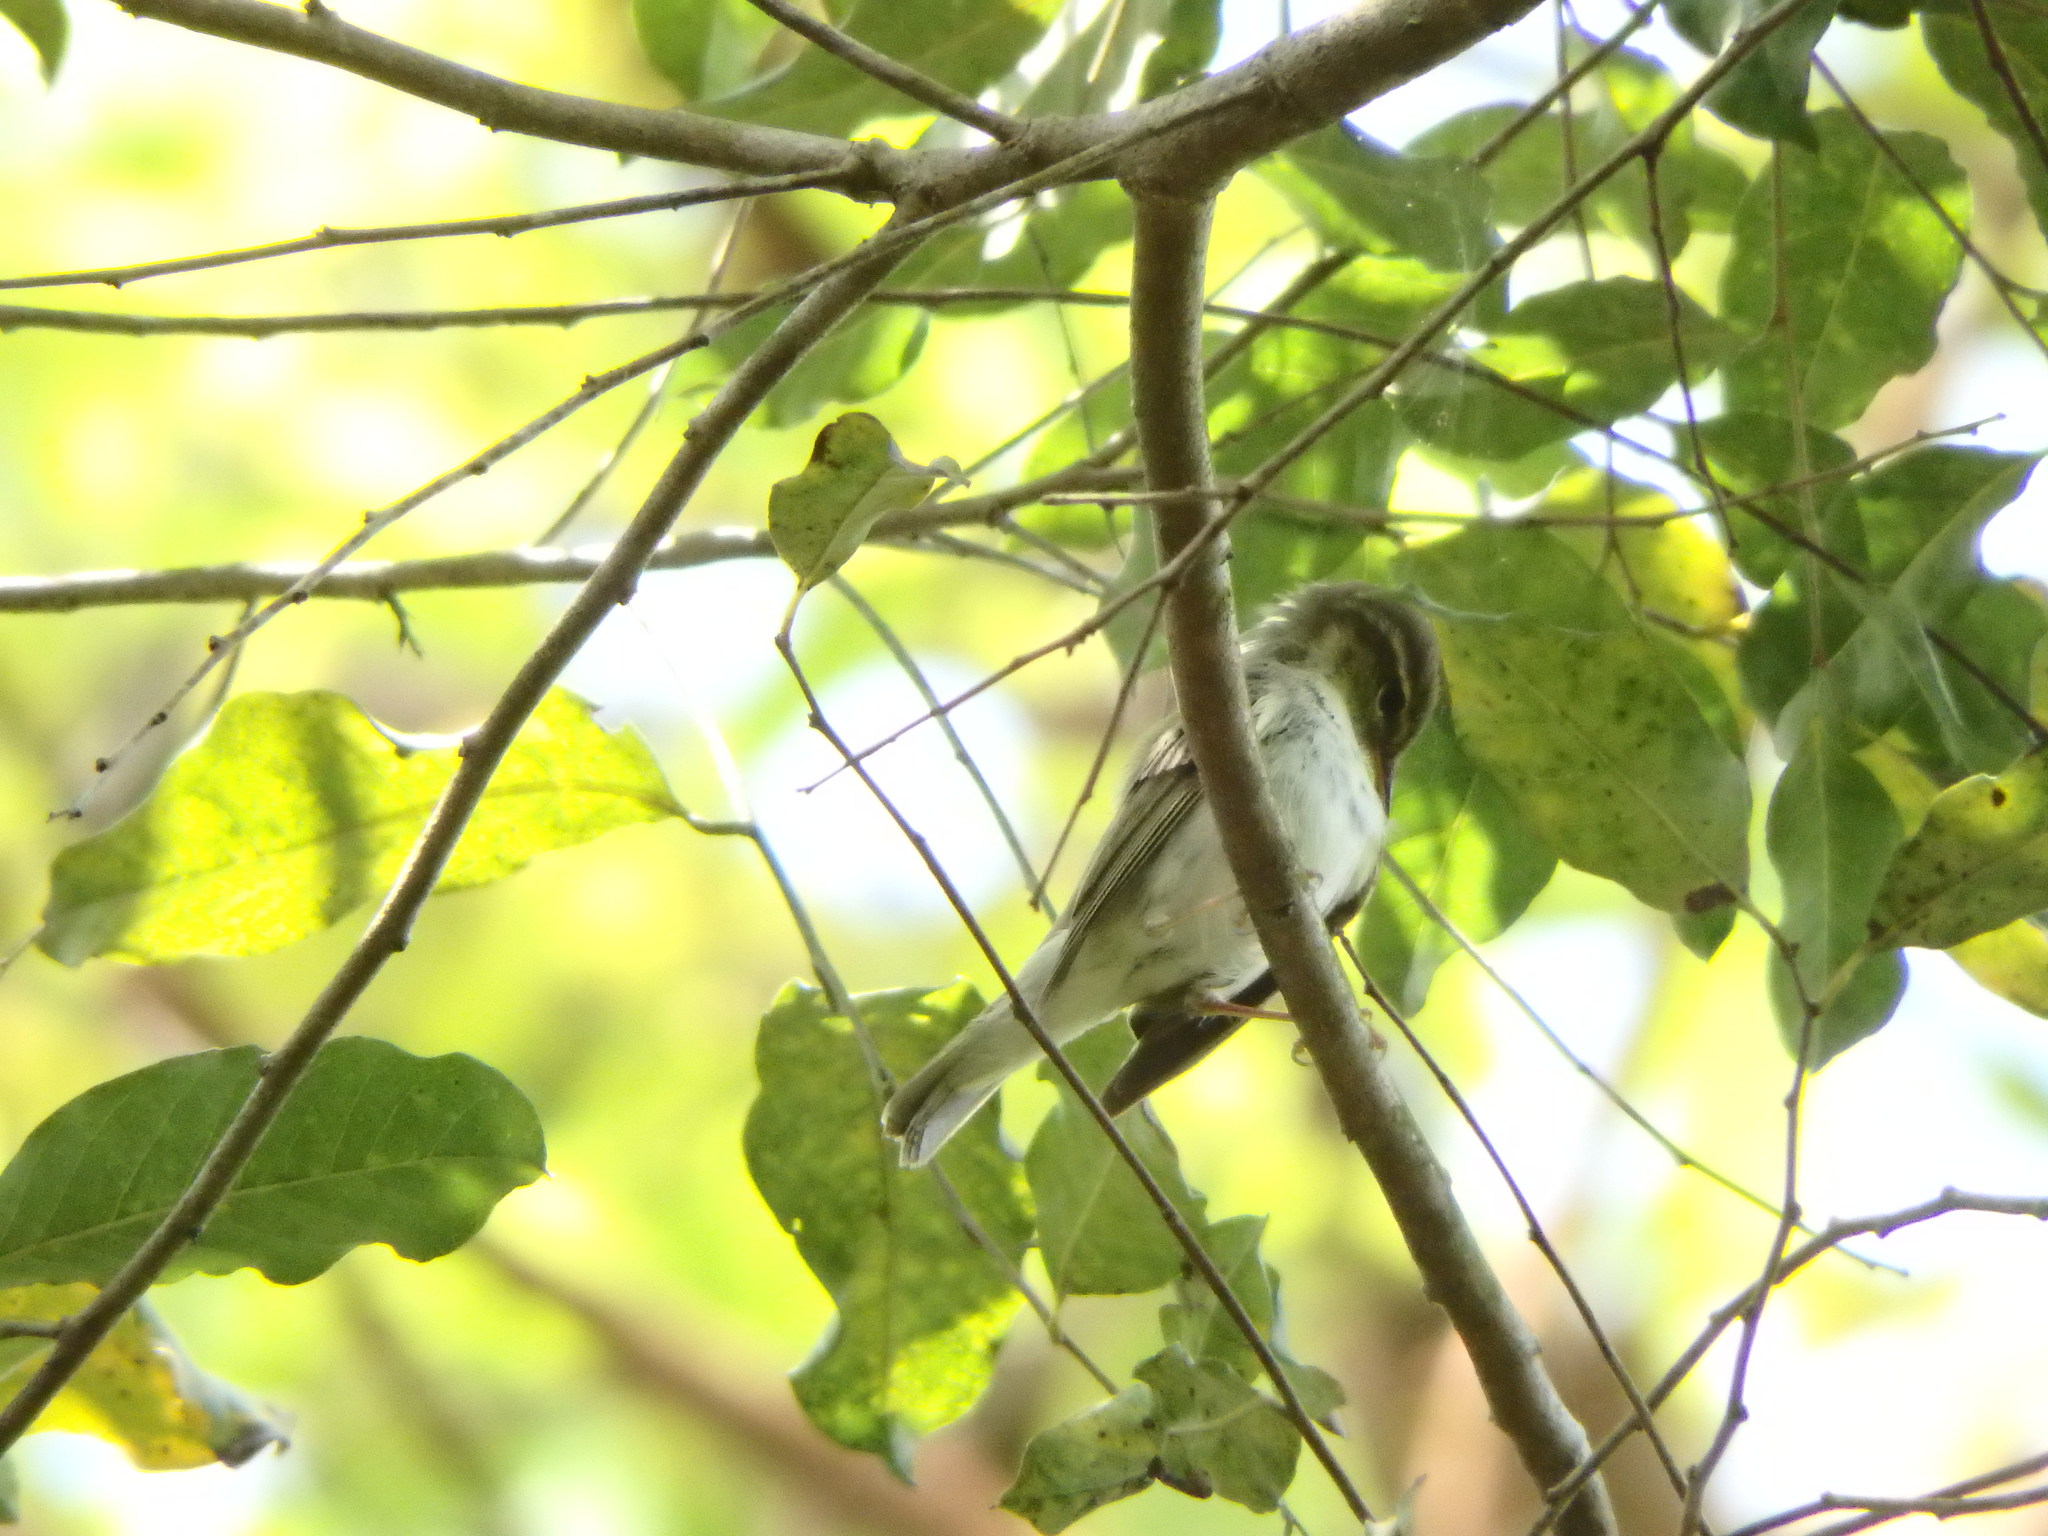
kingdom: Animalia
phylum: Chordata
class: Aves
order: Passeriformes
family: Phylloscopidae
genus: Phylloscopus
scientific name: Phylloscopus borealis
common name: Arctic warbler
